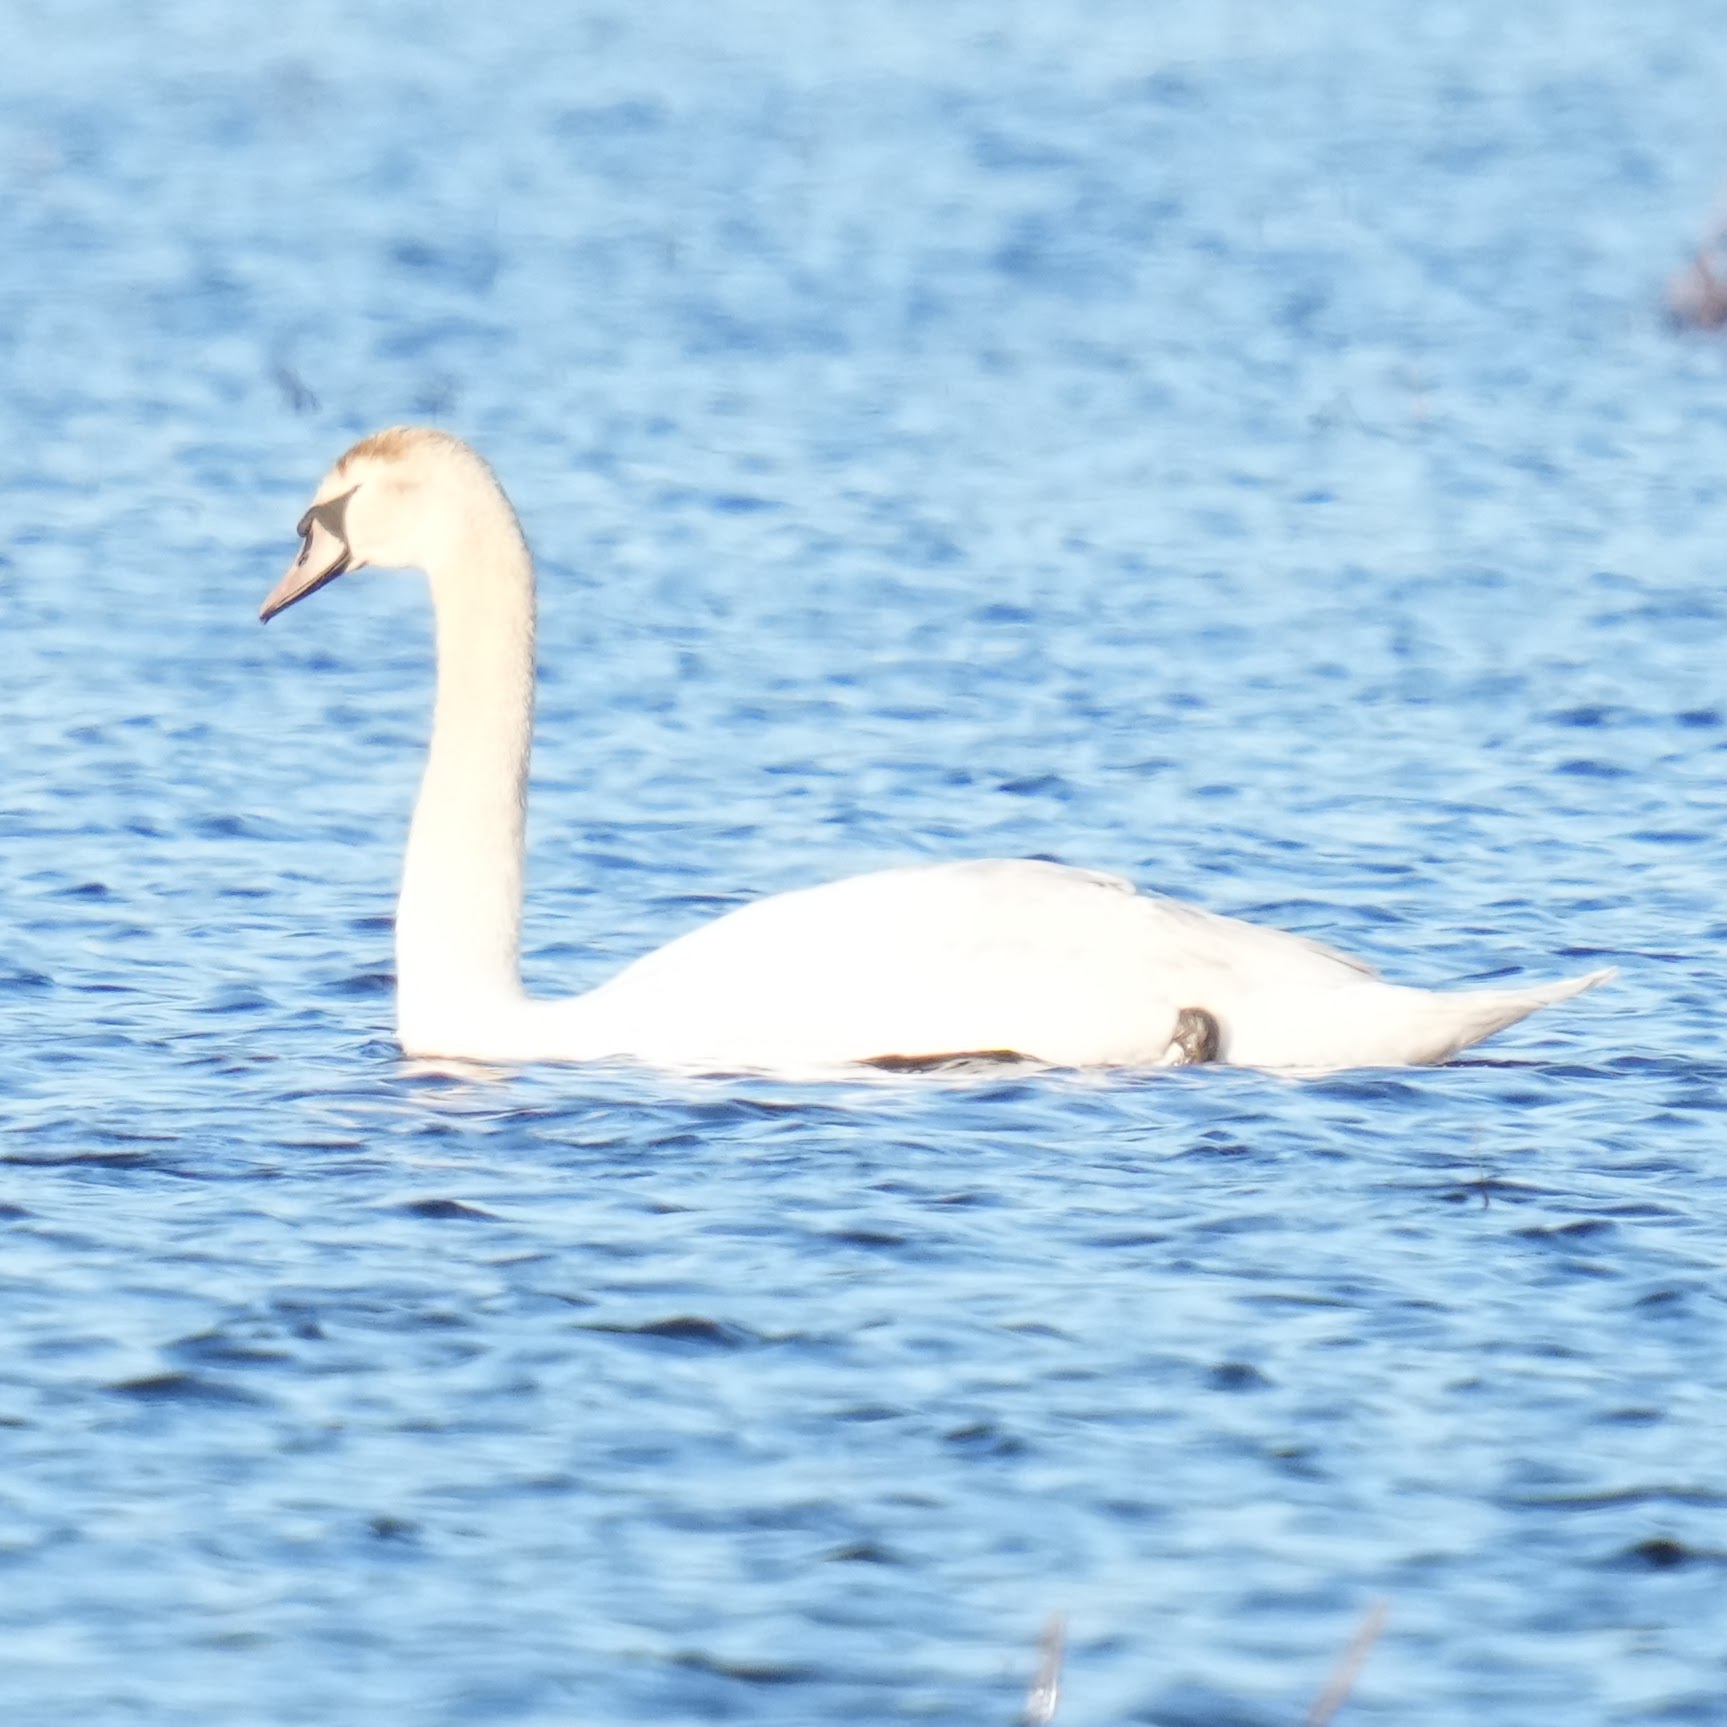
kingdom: Animalia
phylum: Chordata
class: Aves
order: Anseriformes
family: Anatidae
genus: Cygnus
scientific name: Cygnus olor
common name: Mute swan
